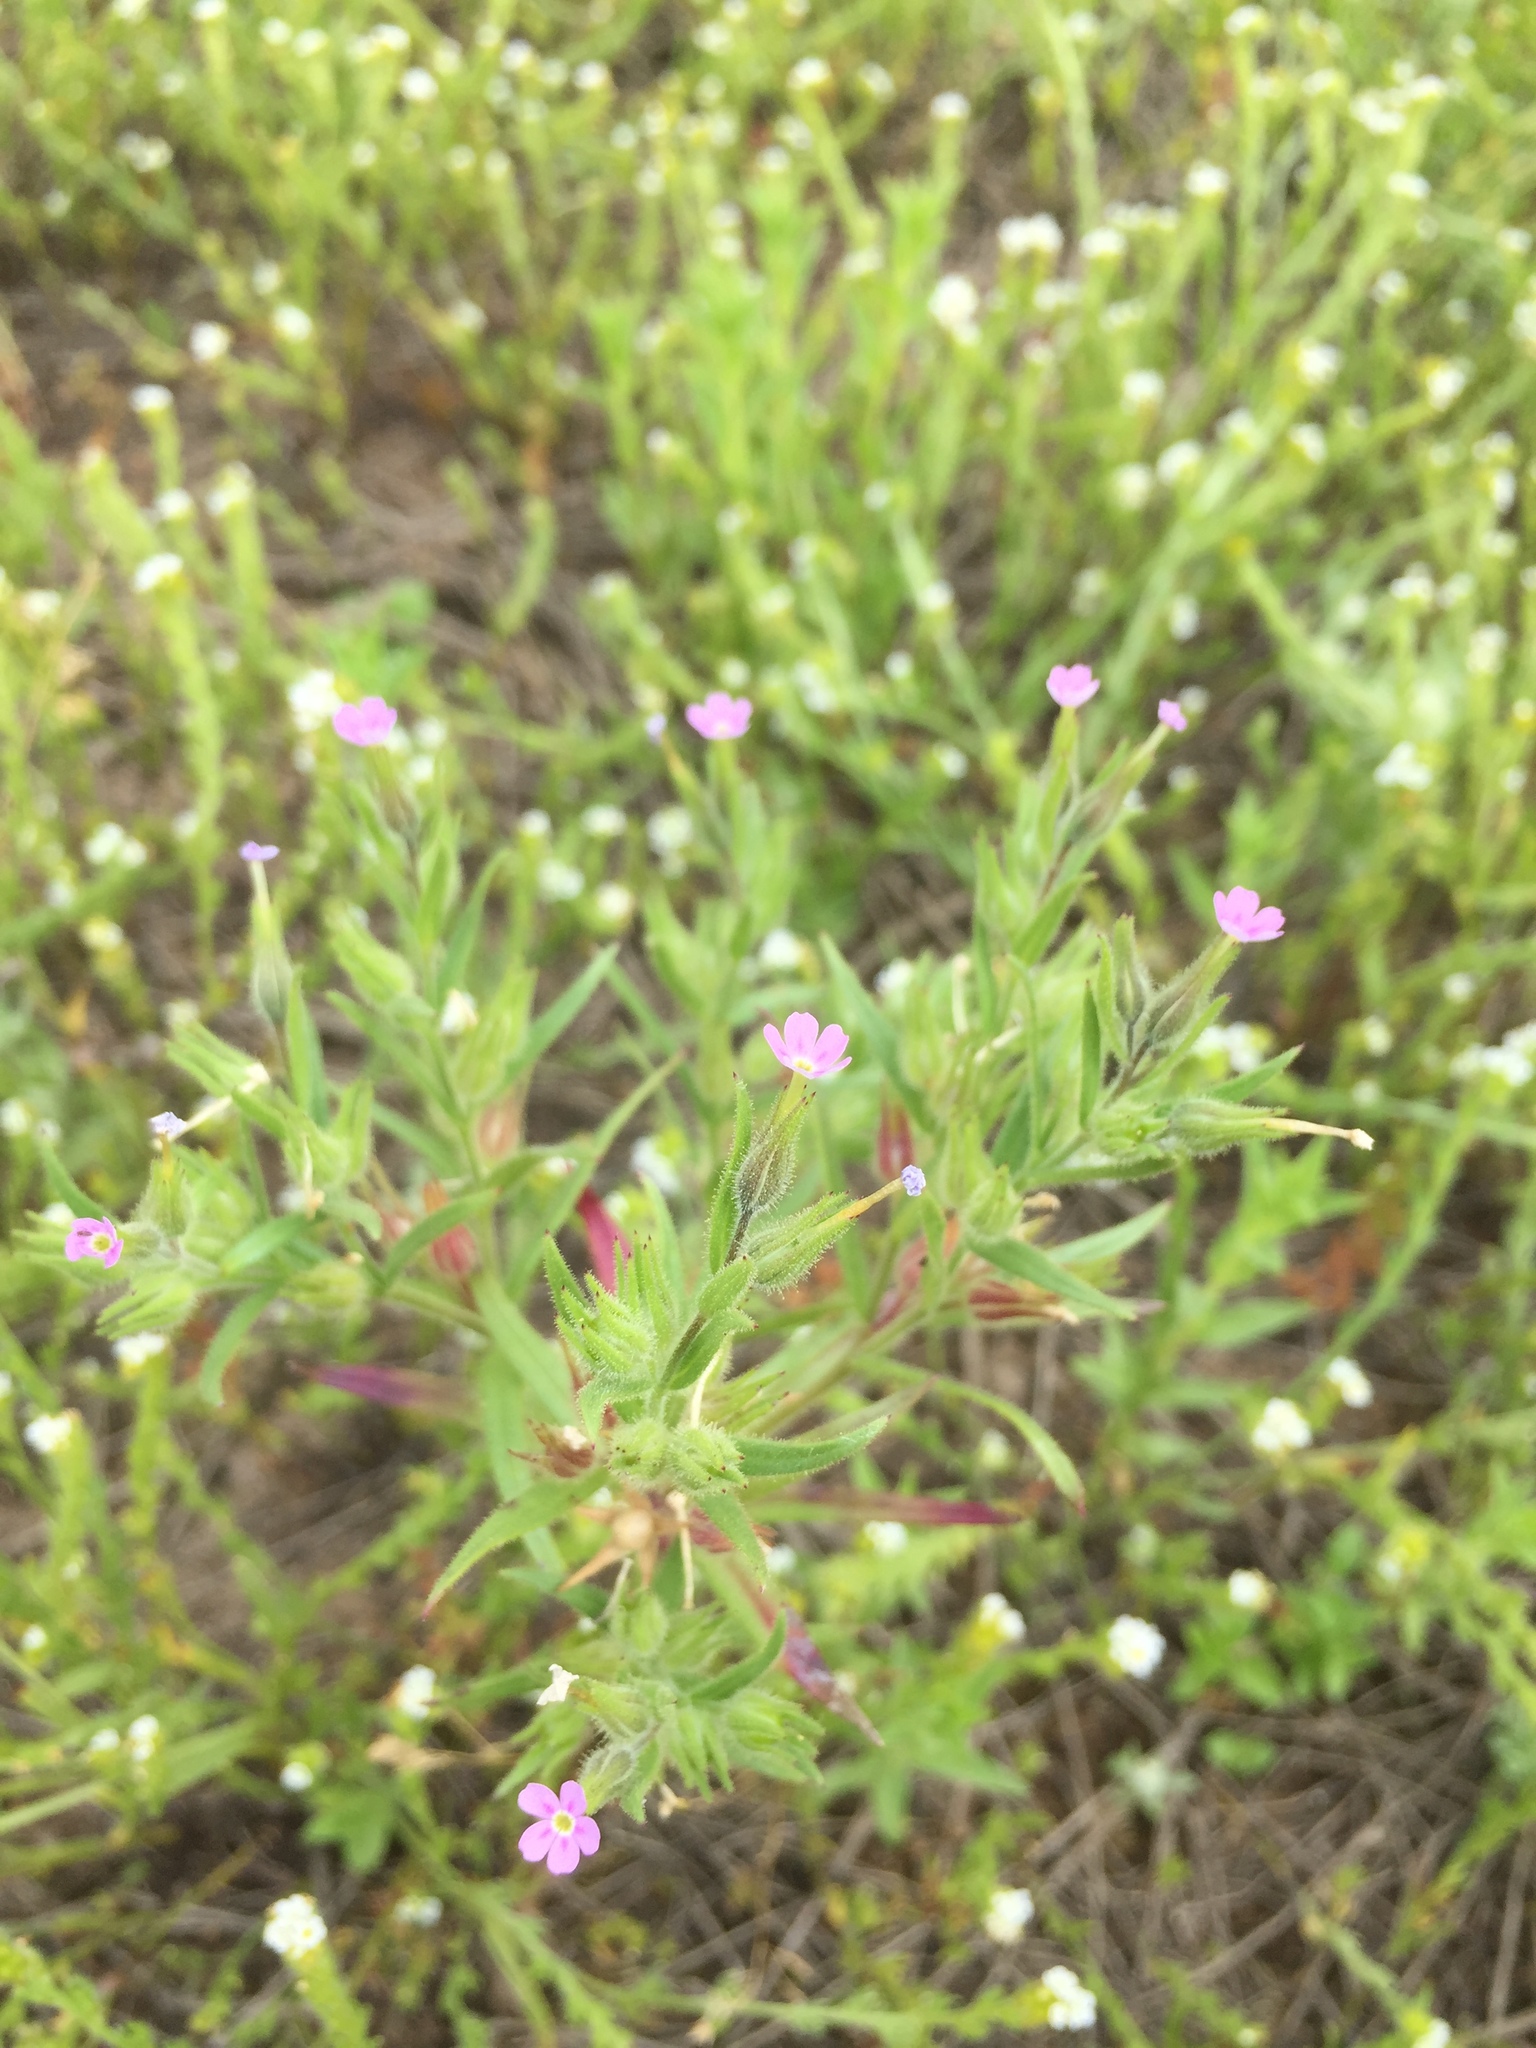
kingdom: Plantae
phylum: Tracheophyta
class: Magnoliopsida
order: Ericales
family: Polemoniaceae
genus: Phlox
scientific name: Phlox gracilis
